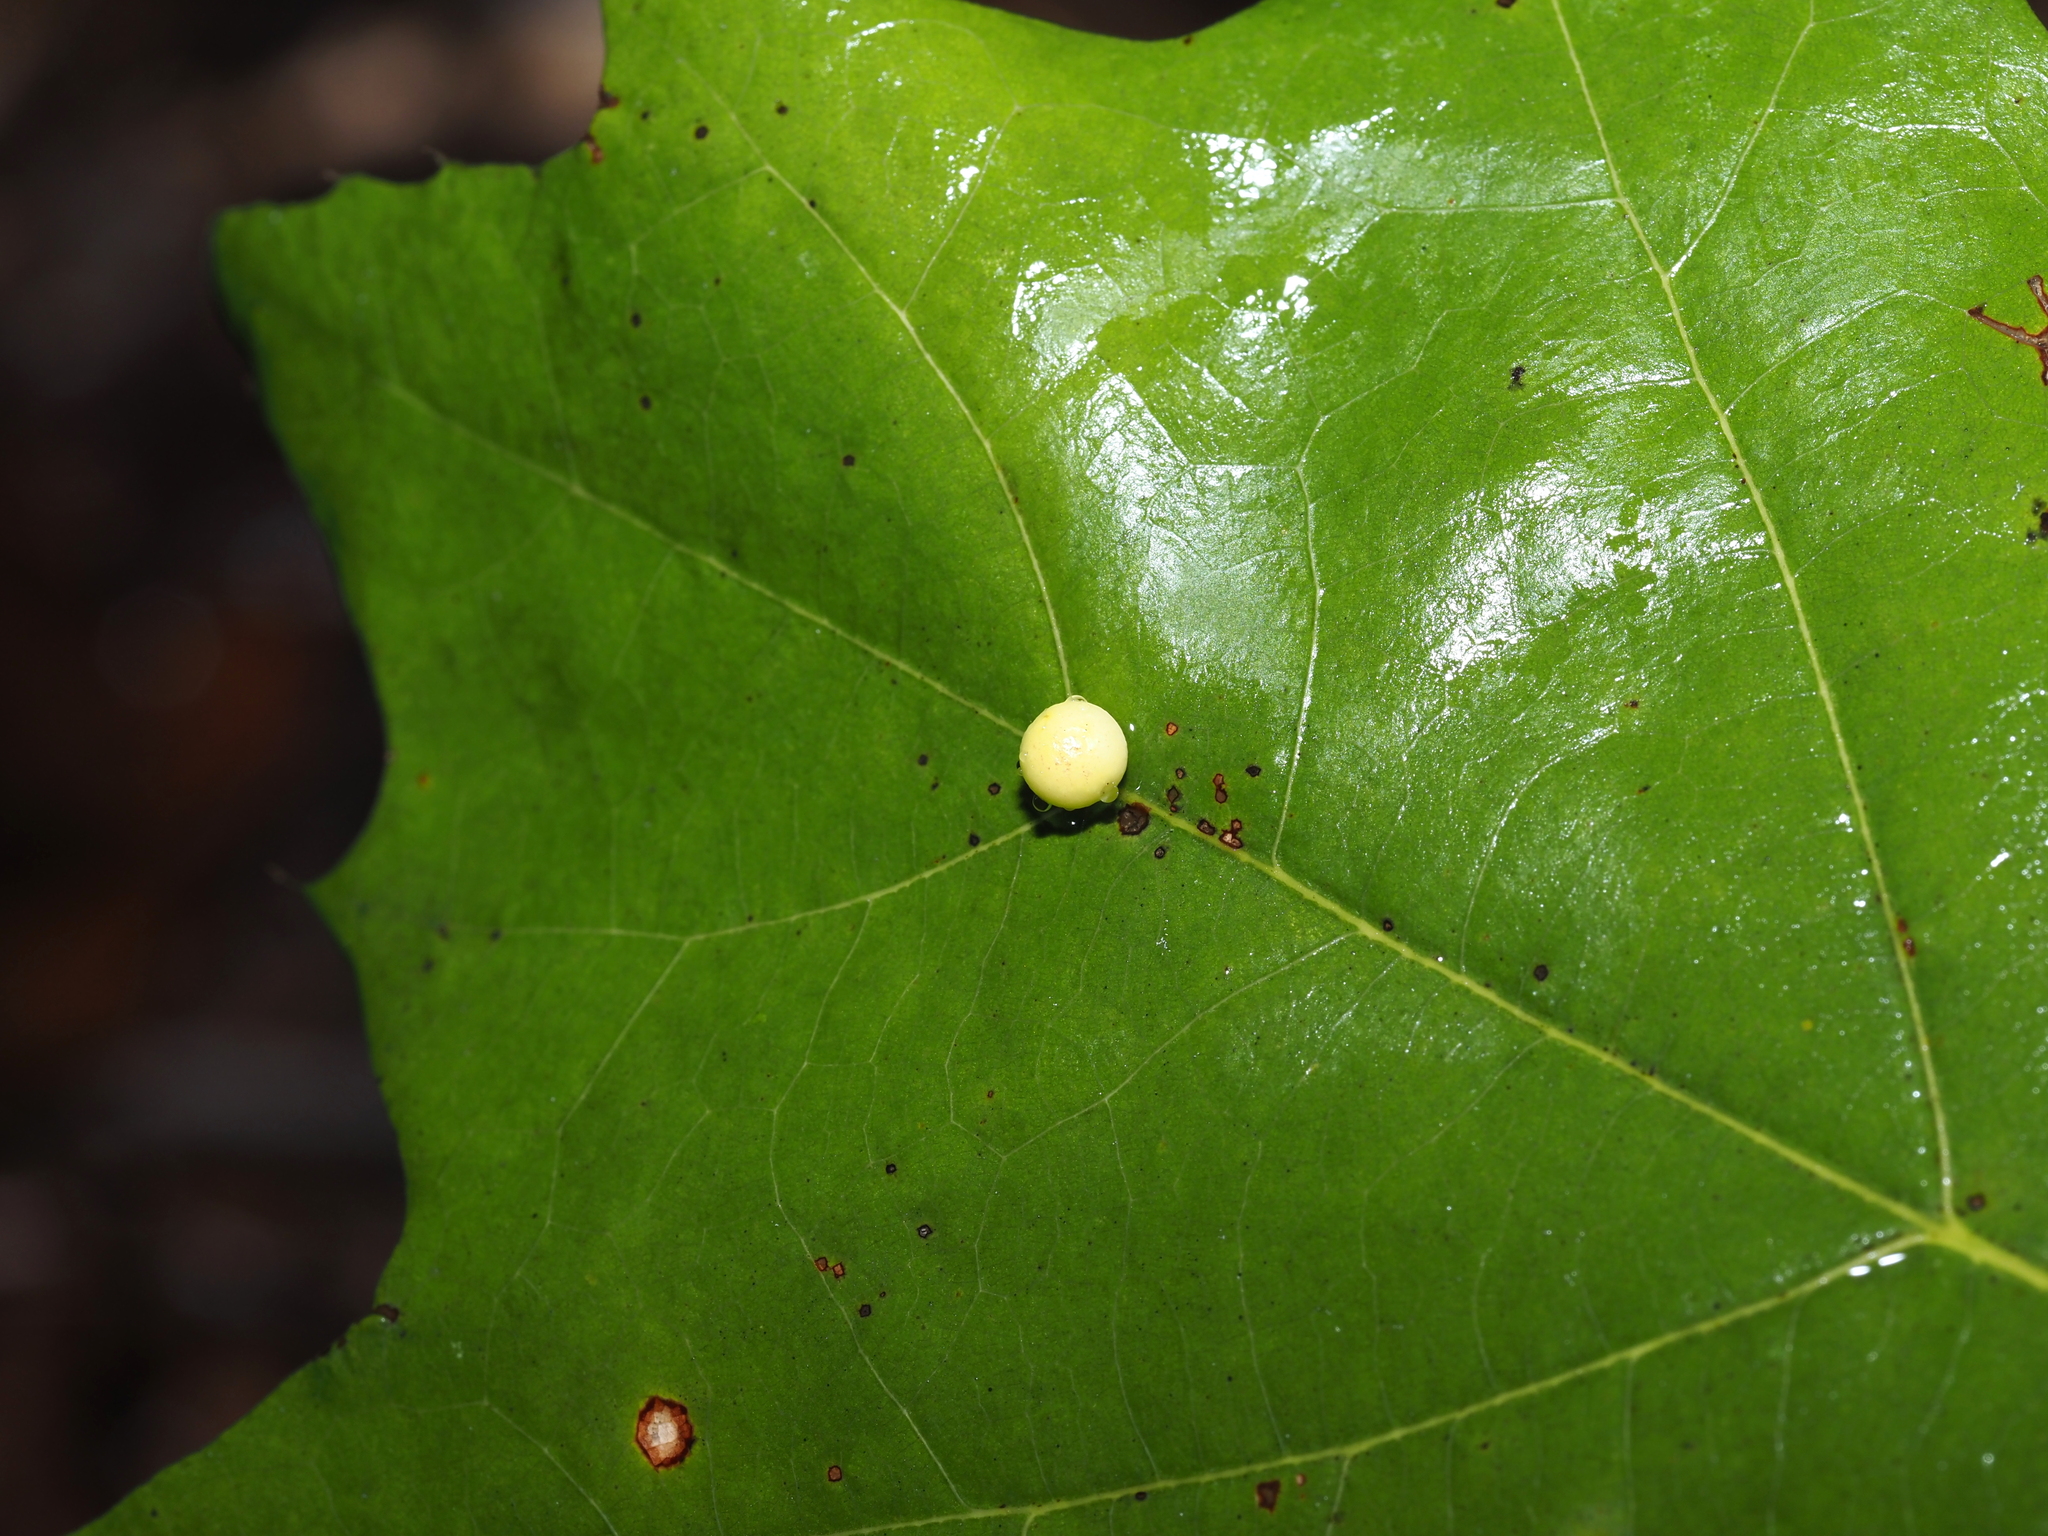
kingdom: Animalia
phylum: Arthropoda
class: Insecta
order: Hymenoptera
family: Cynipidae
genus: Zopheroteras
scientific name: Zopheroteras
